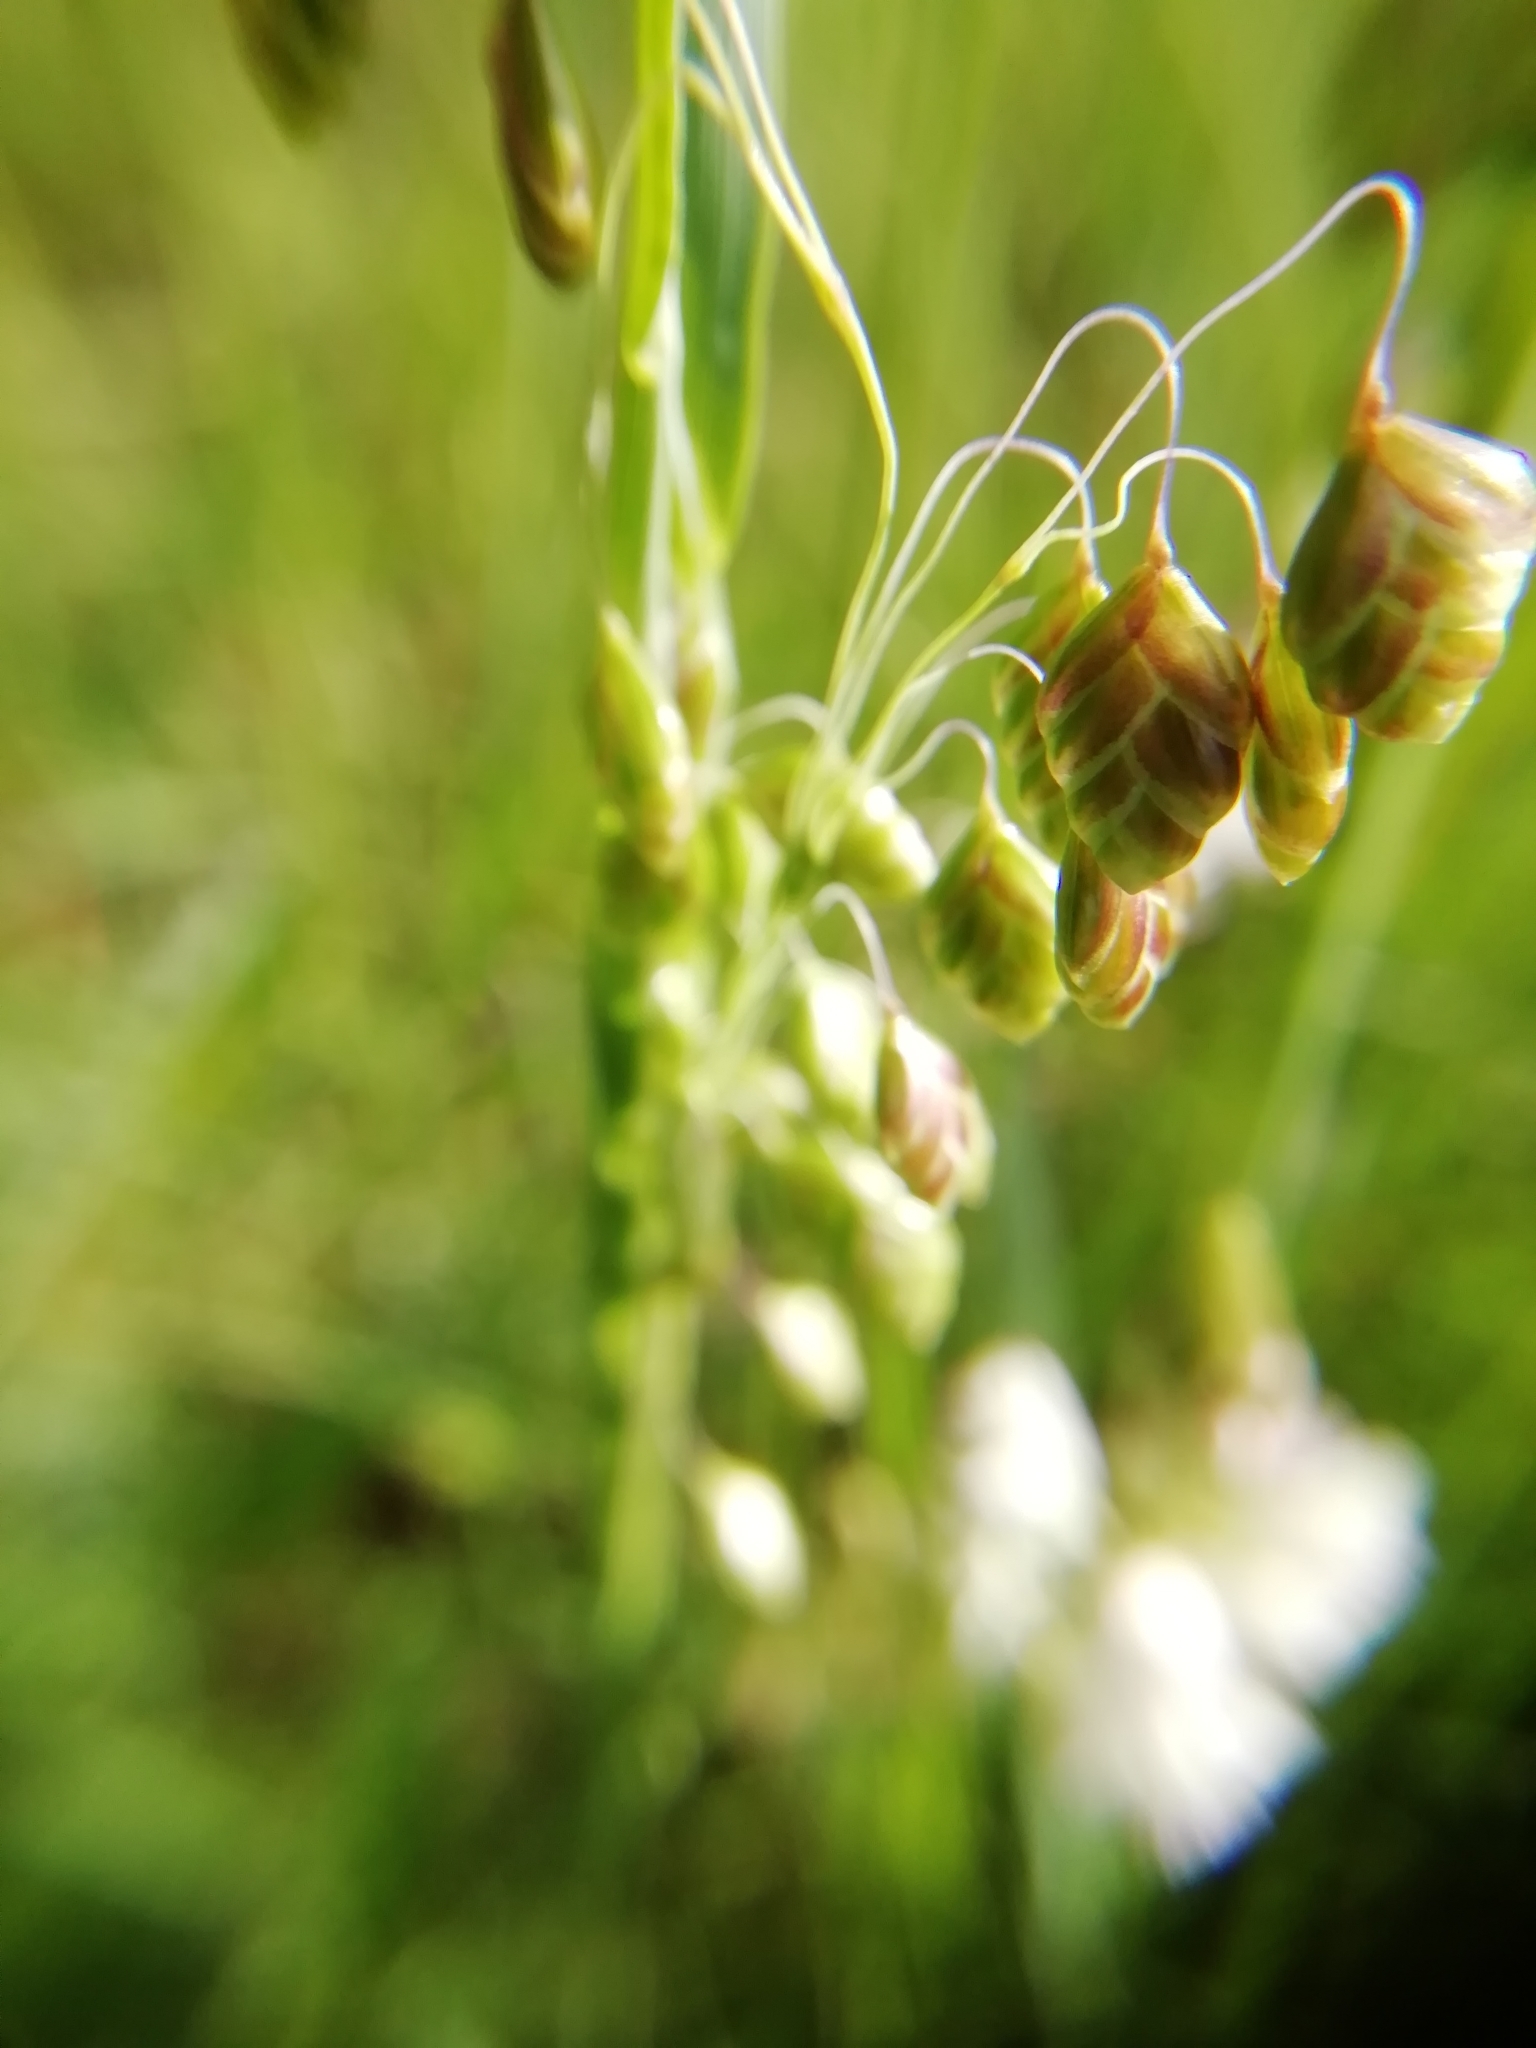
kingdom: Plantae
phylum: Tracheophyta
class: Liliopsida
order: Poales
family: Poaceae
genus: Briza
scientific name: Briza media
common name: Quaking grass
